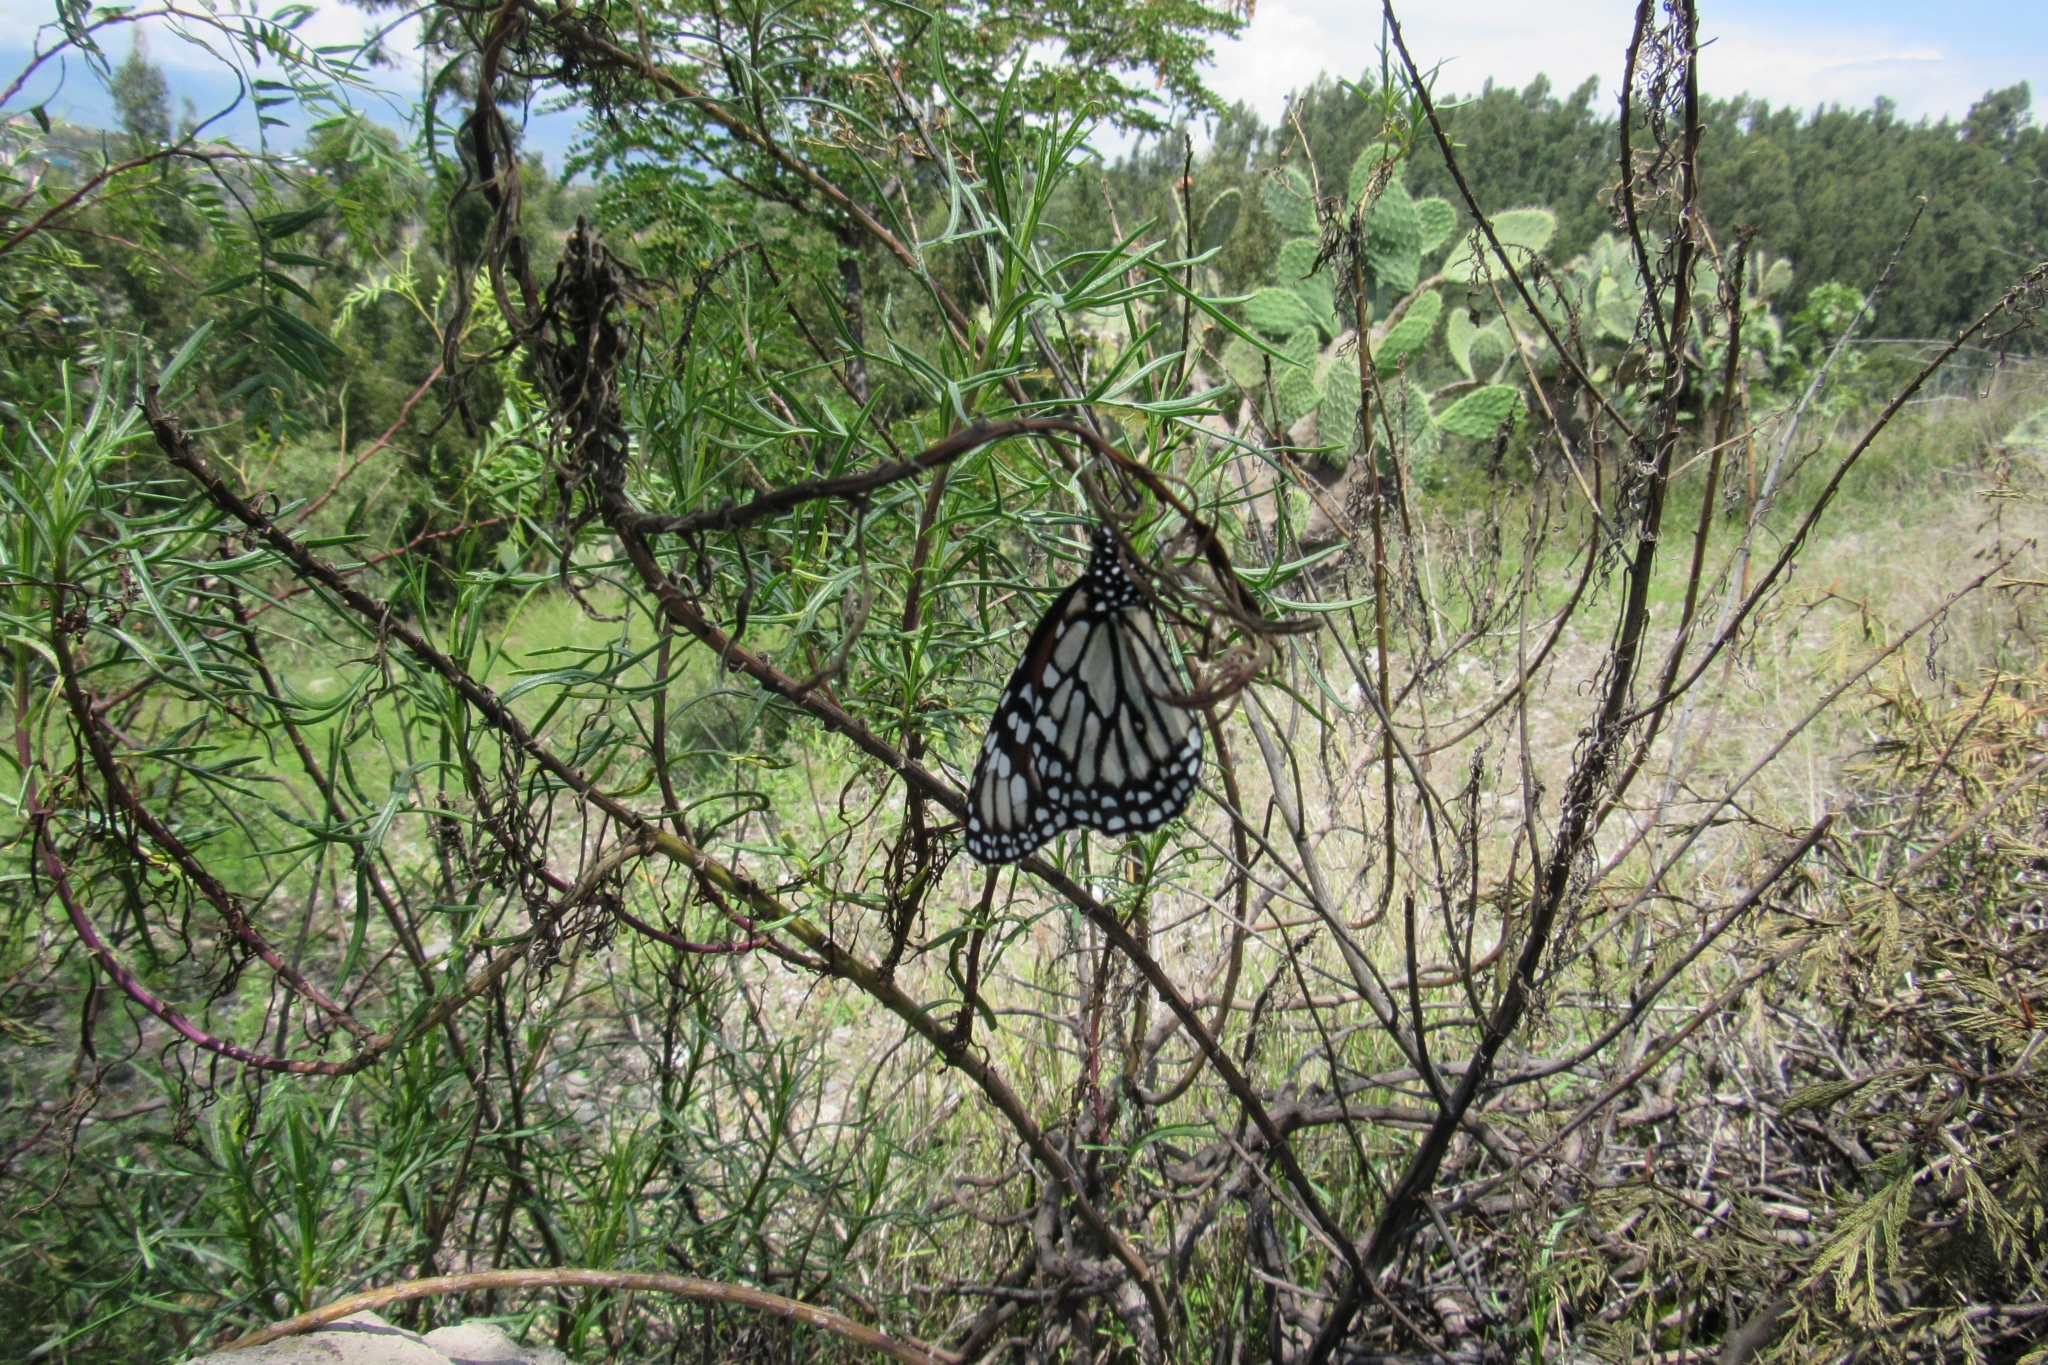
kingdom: Animalia
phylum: Arthropoda
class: Insecta
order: Lepidoptera
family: Nymphalidae
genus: Danaus
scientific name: Danaus plexippus
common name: Monarch
